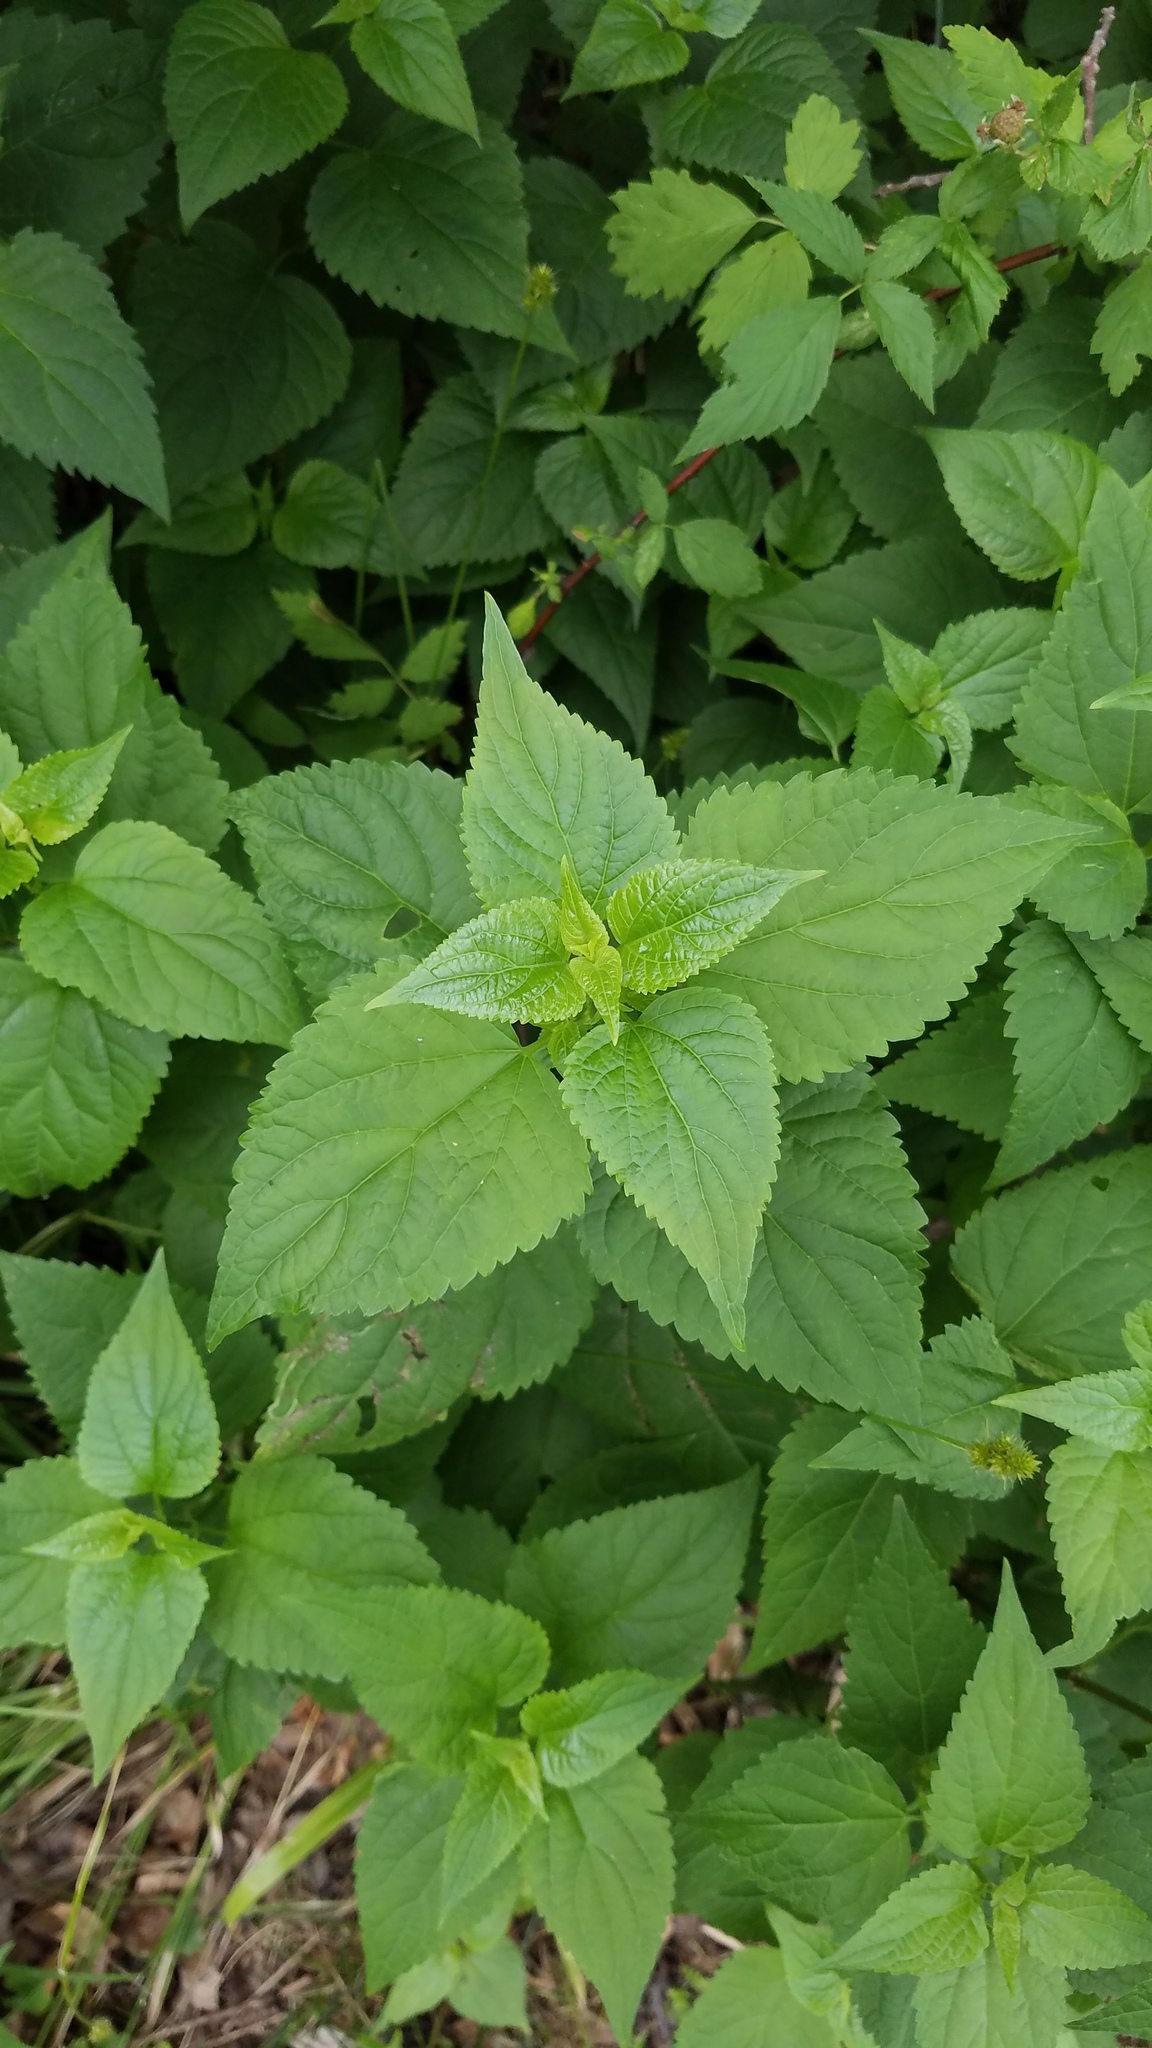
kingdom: Plantae
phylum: Tracheophyta
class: Magnoliopsida
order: Asterales
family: Asteraceae
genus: Ageratina
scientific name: Ageratina altissima
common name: White snakeroot
